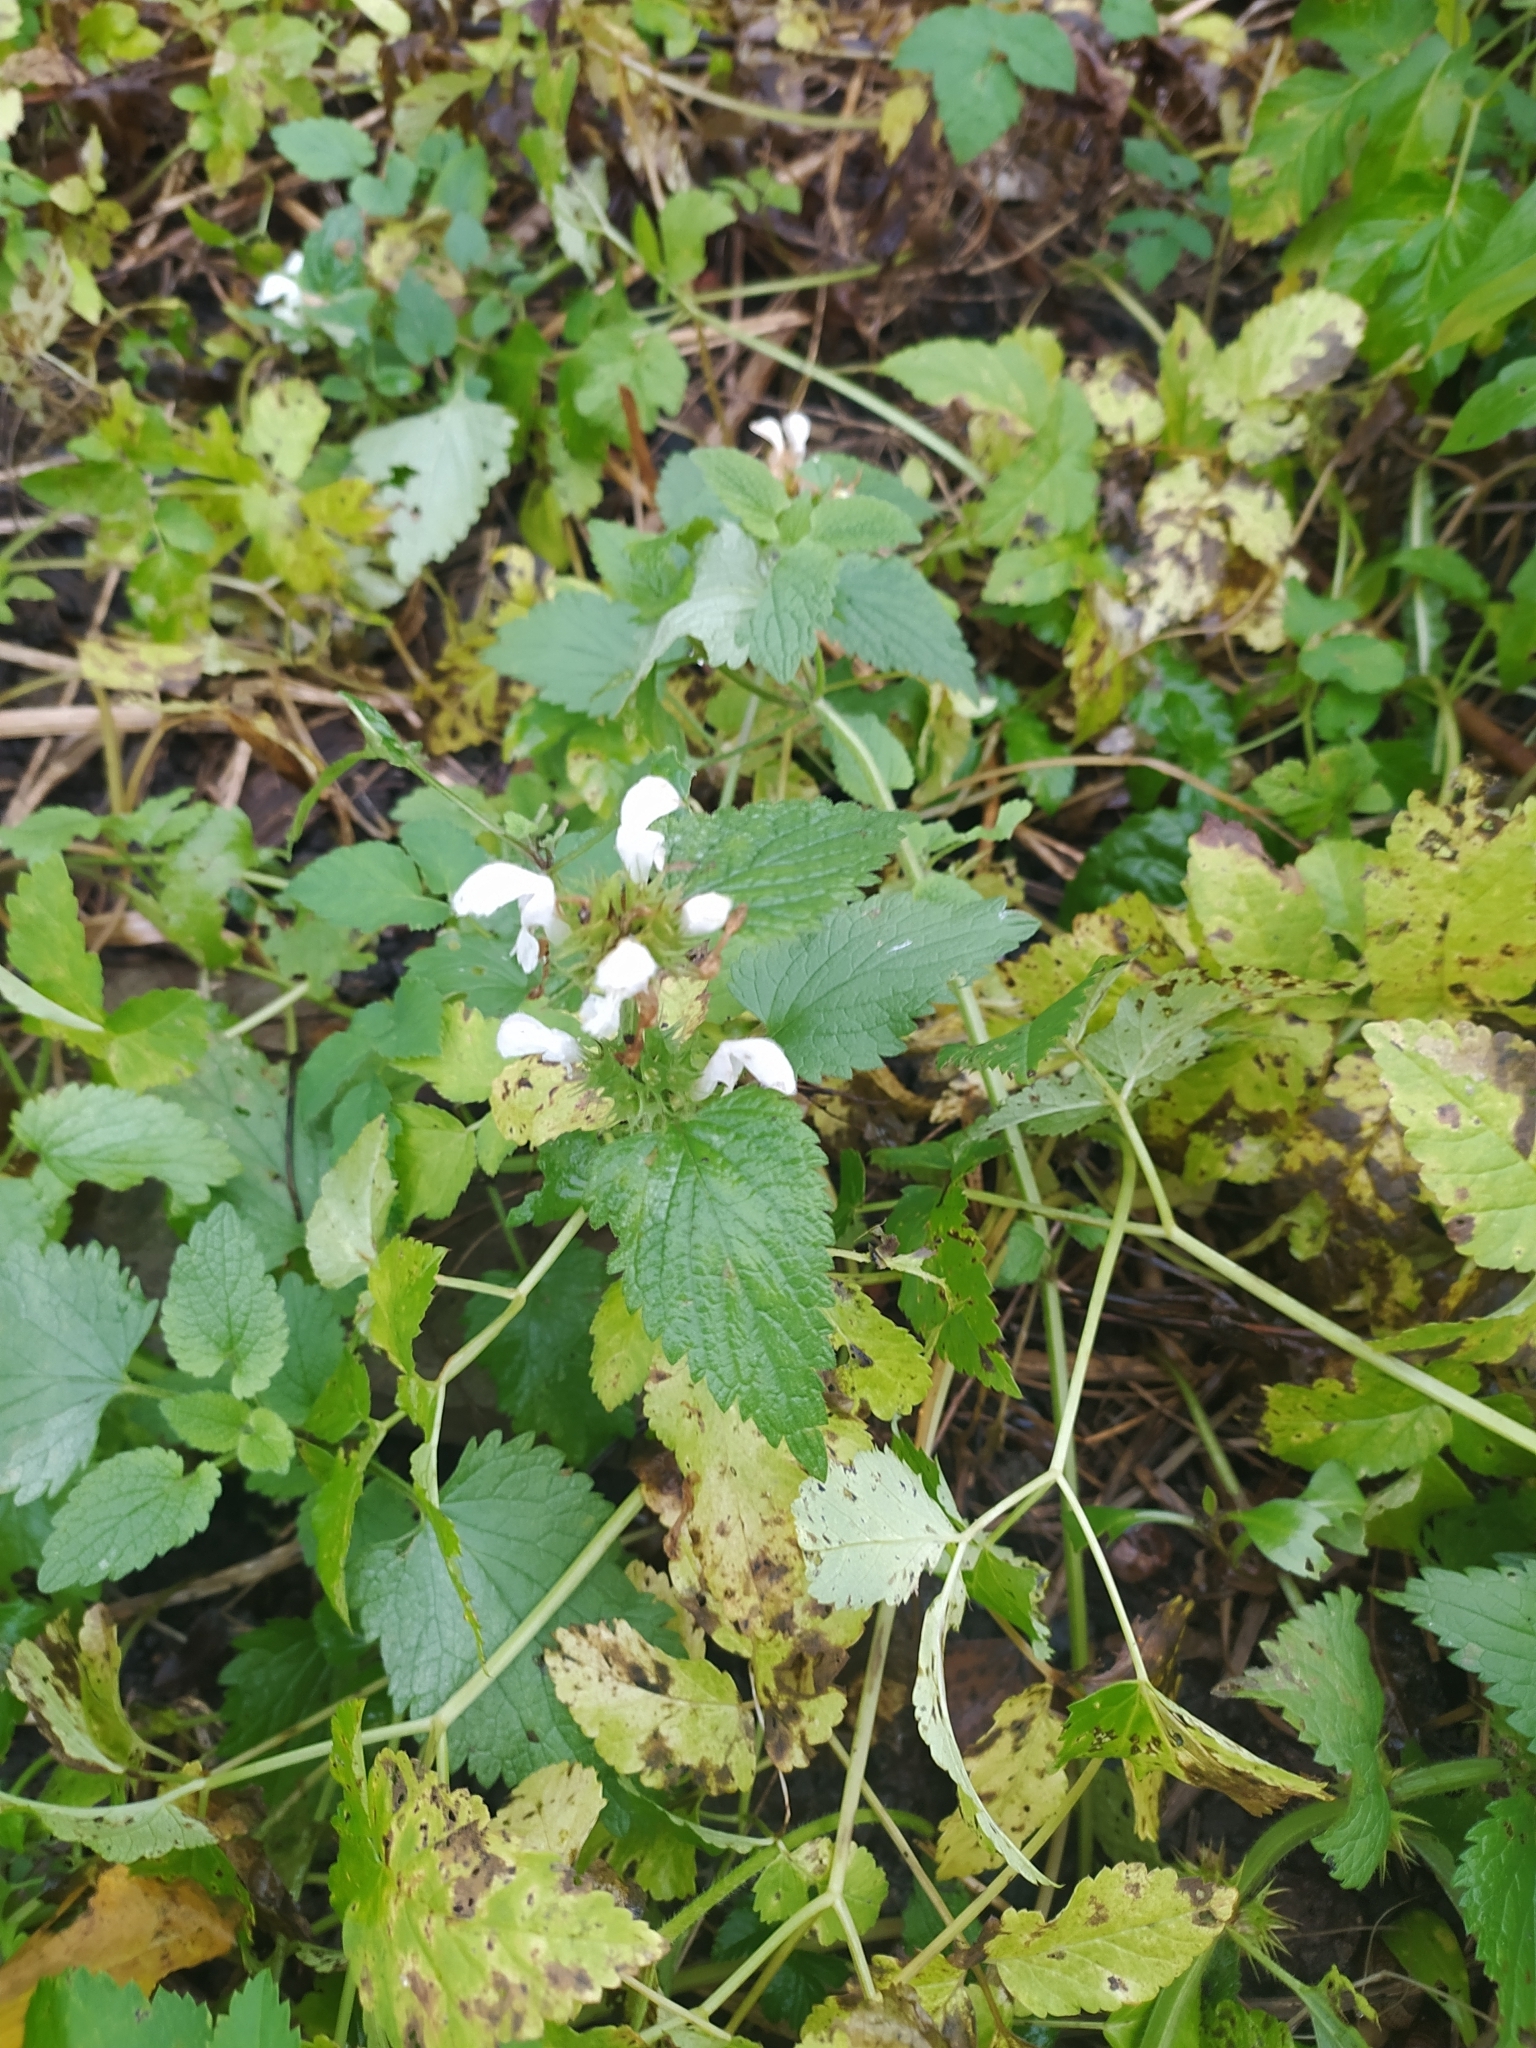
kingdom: Plantae
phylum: Tracheophyta
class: Magnoliopsida
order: Lamiales
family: Lamiaceae
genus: Lamium
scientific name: Lamium album
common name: White dead-nettle
